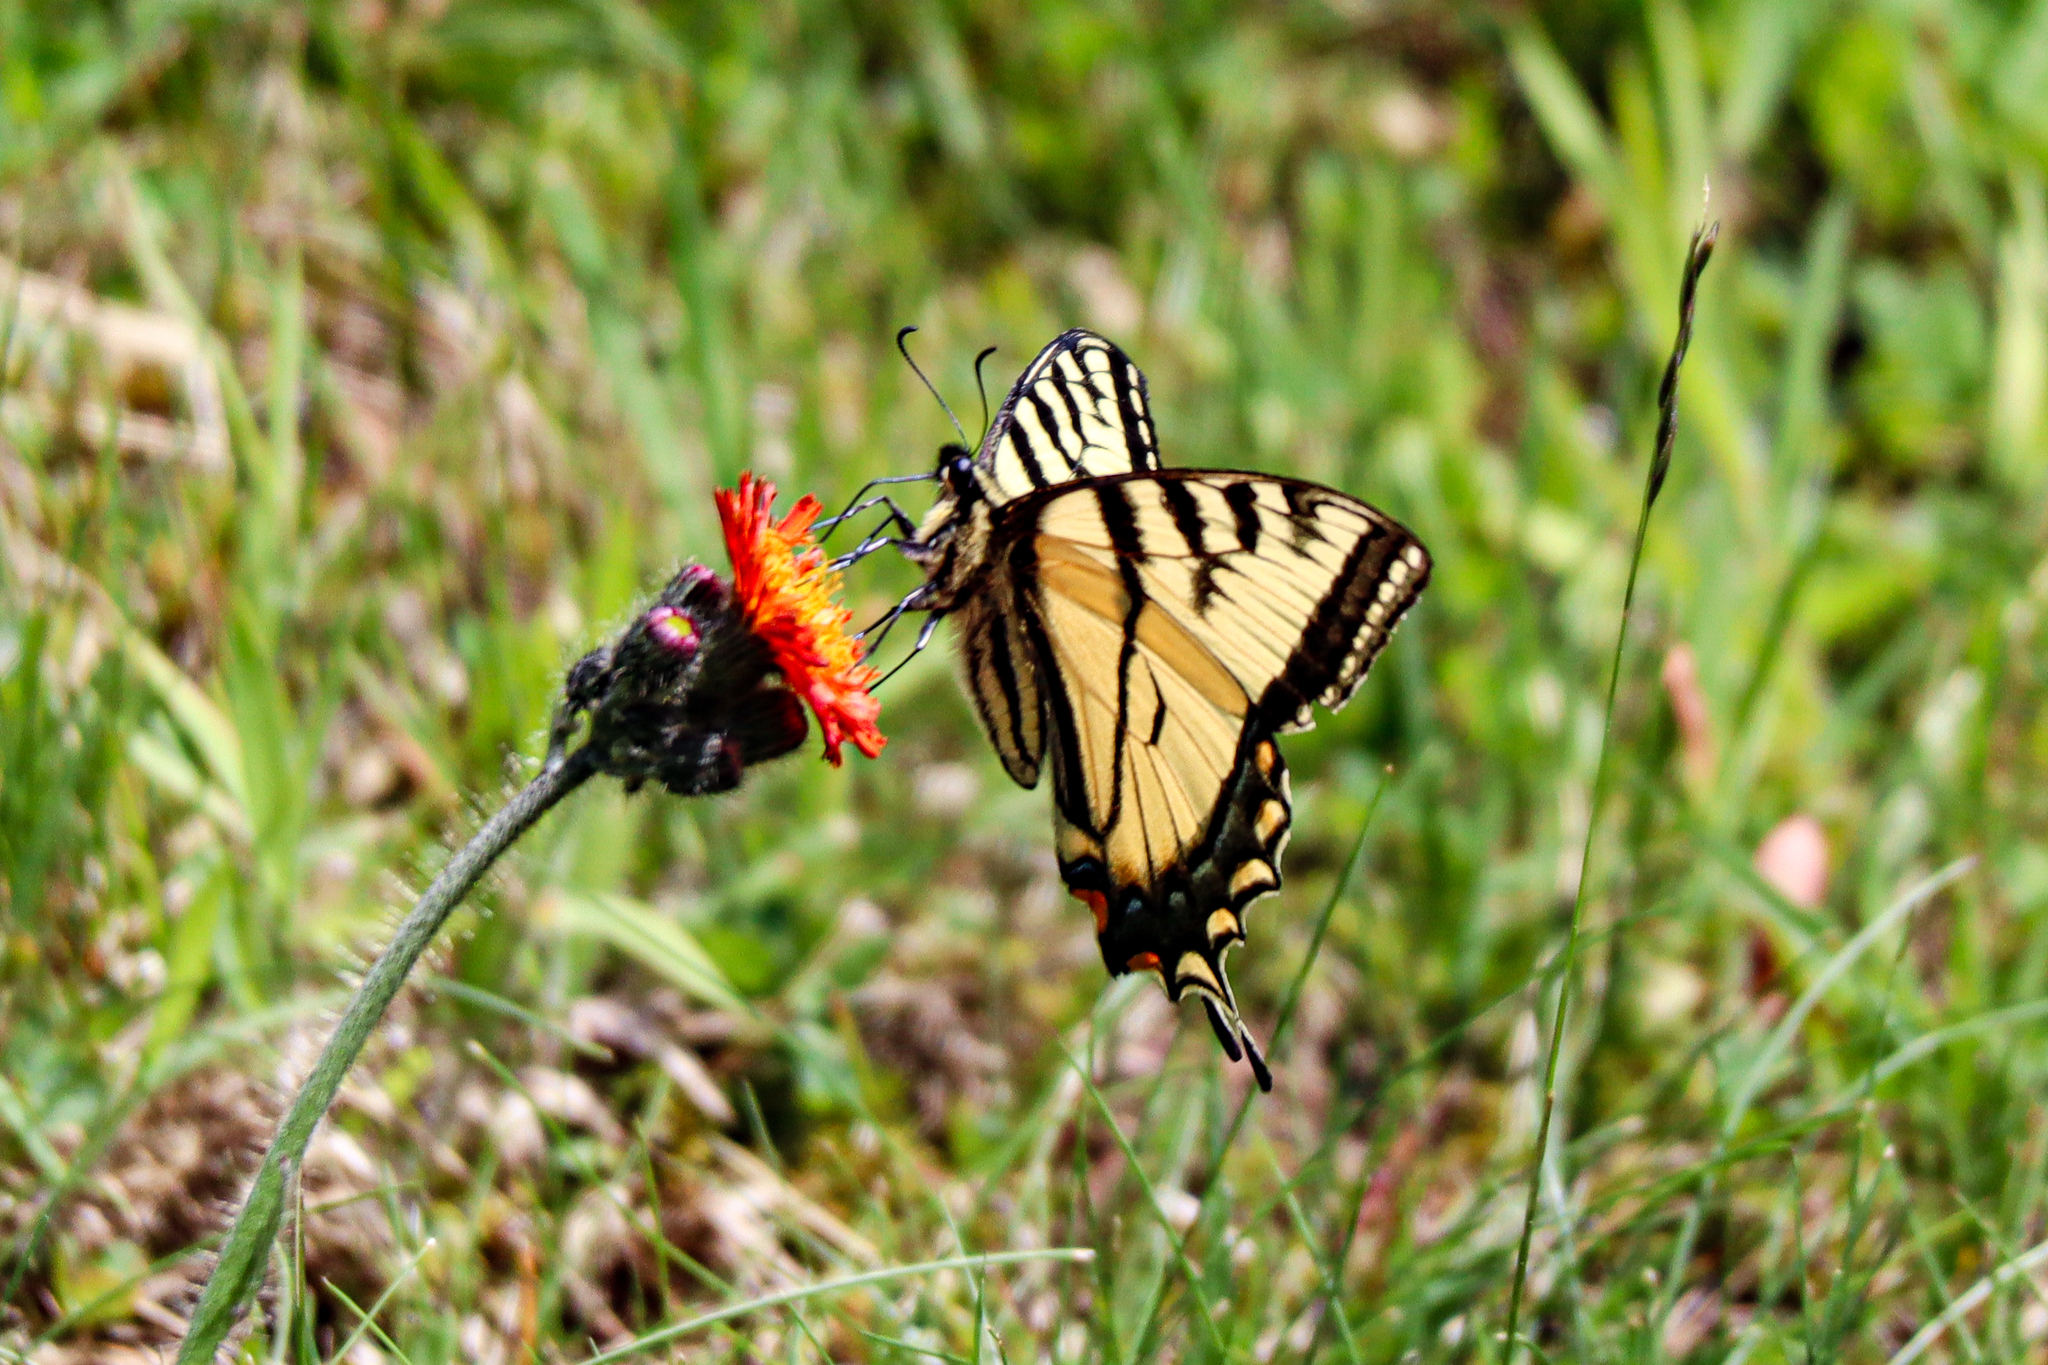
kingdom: Animalia
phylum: Arthropoda
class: Insecta
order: Lepidoptera
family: Papilionidae
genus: Papilio
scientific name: Papilio canadensis
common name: Canadian tiger swallowtail
